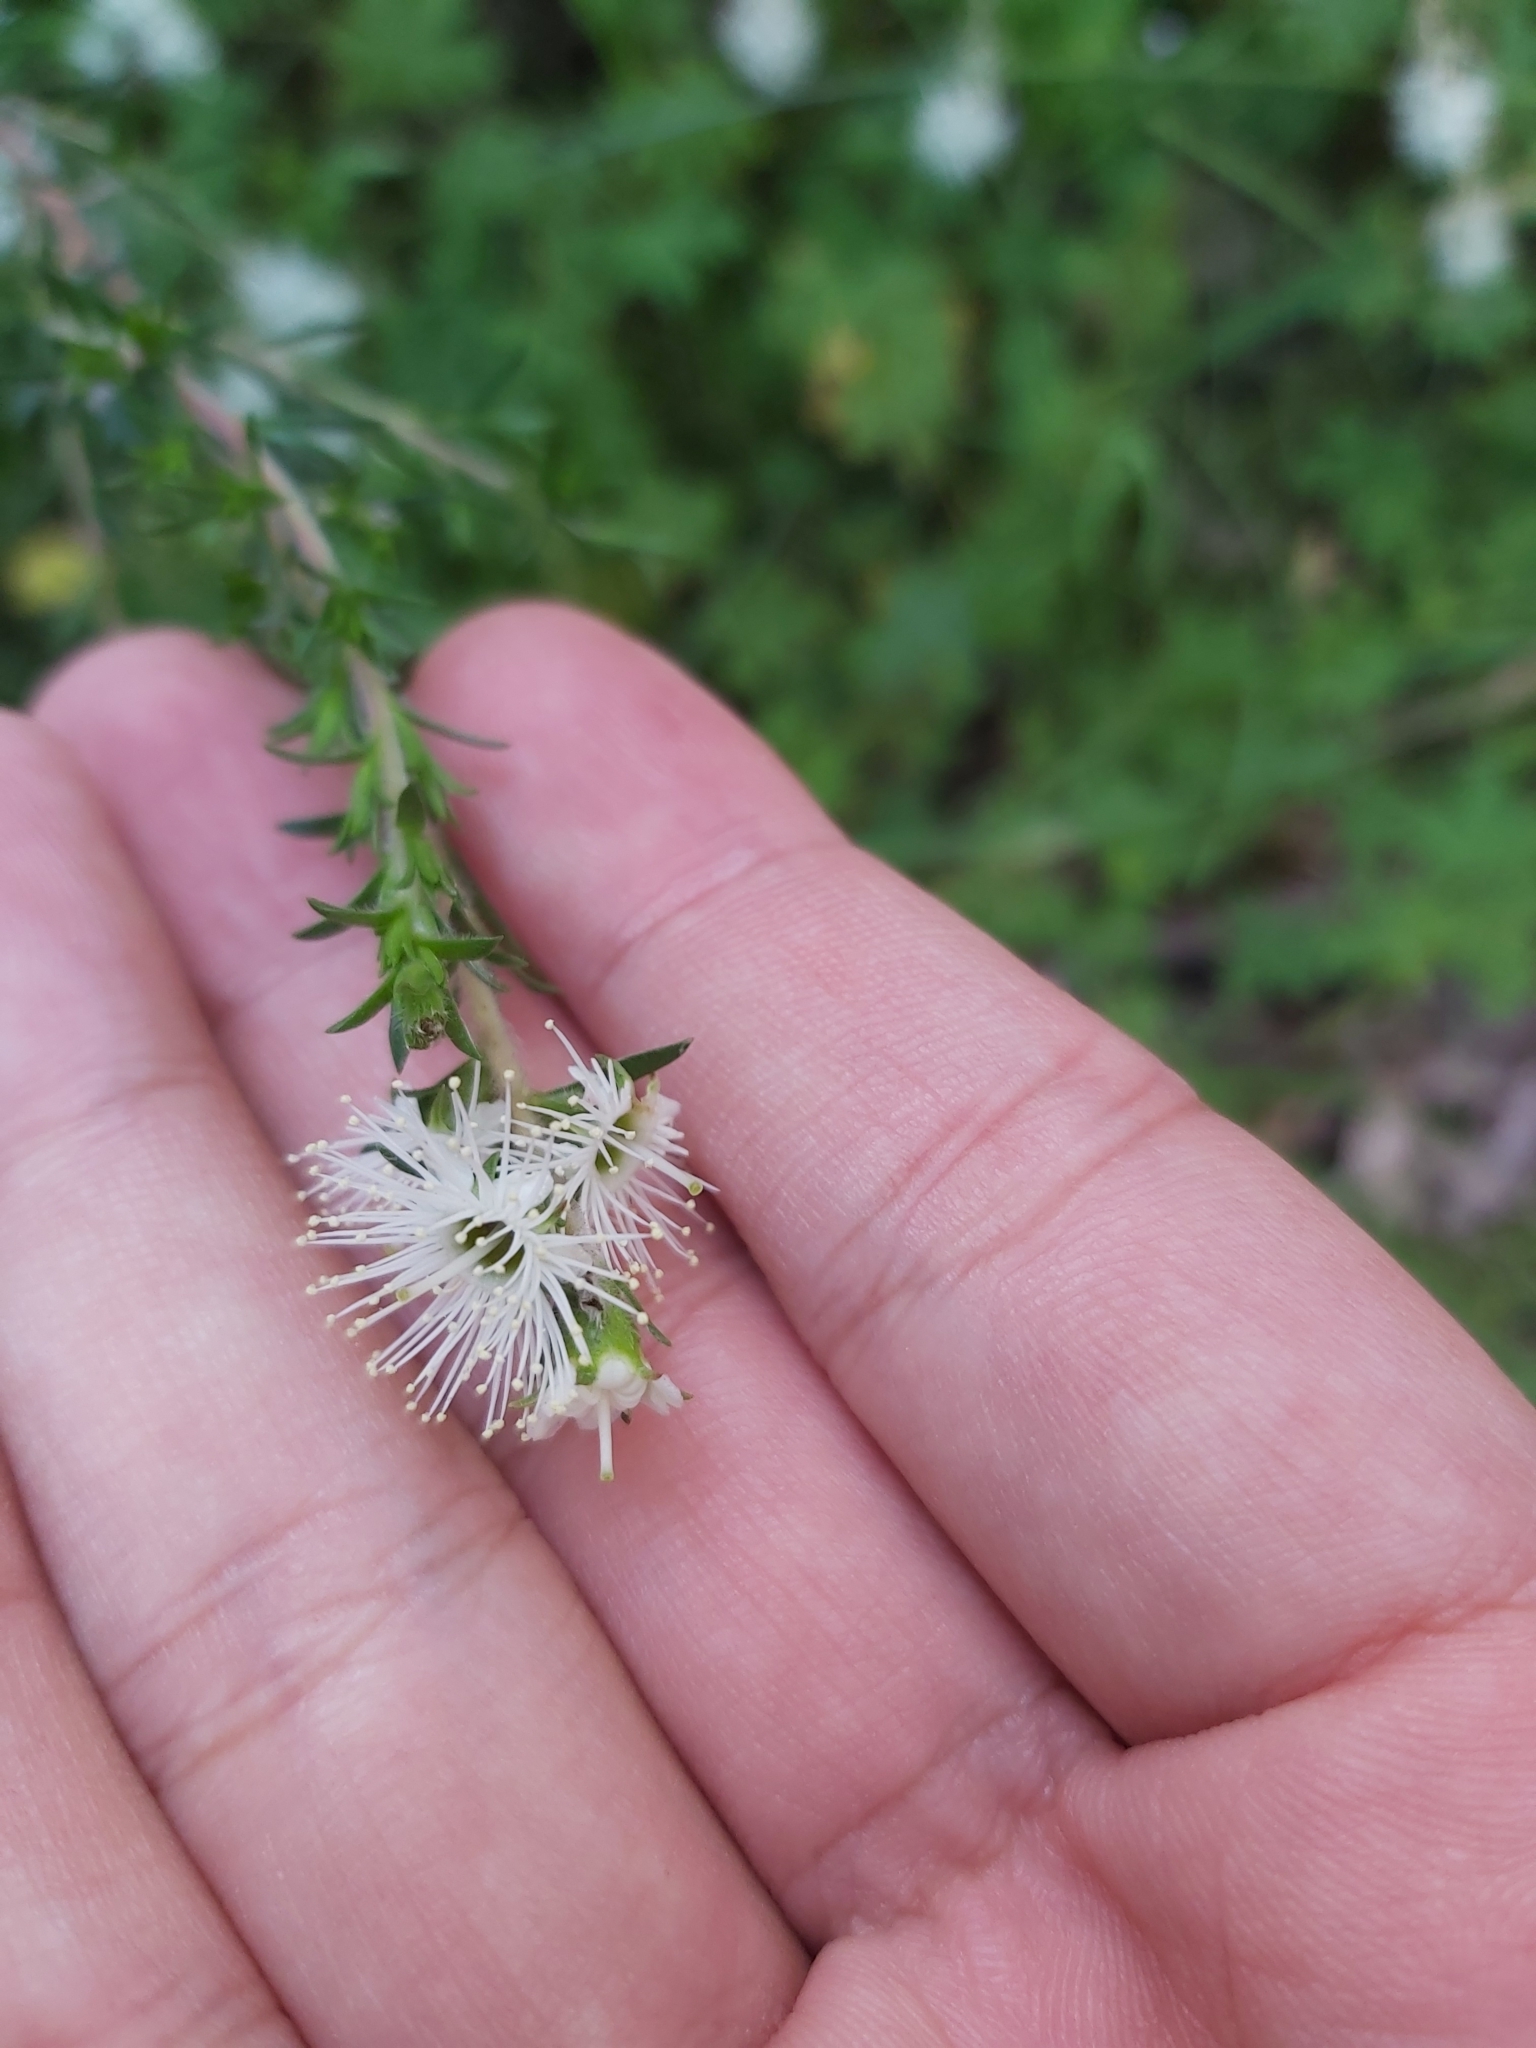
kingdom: Plantae
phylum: Tracheophyta
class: Magnoliopsida
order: Myrtales
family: Myrtaceae
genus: Kunzea
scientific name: Kunzea ambigua
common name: Tickbush
